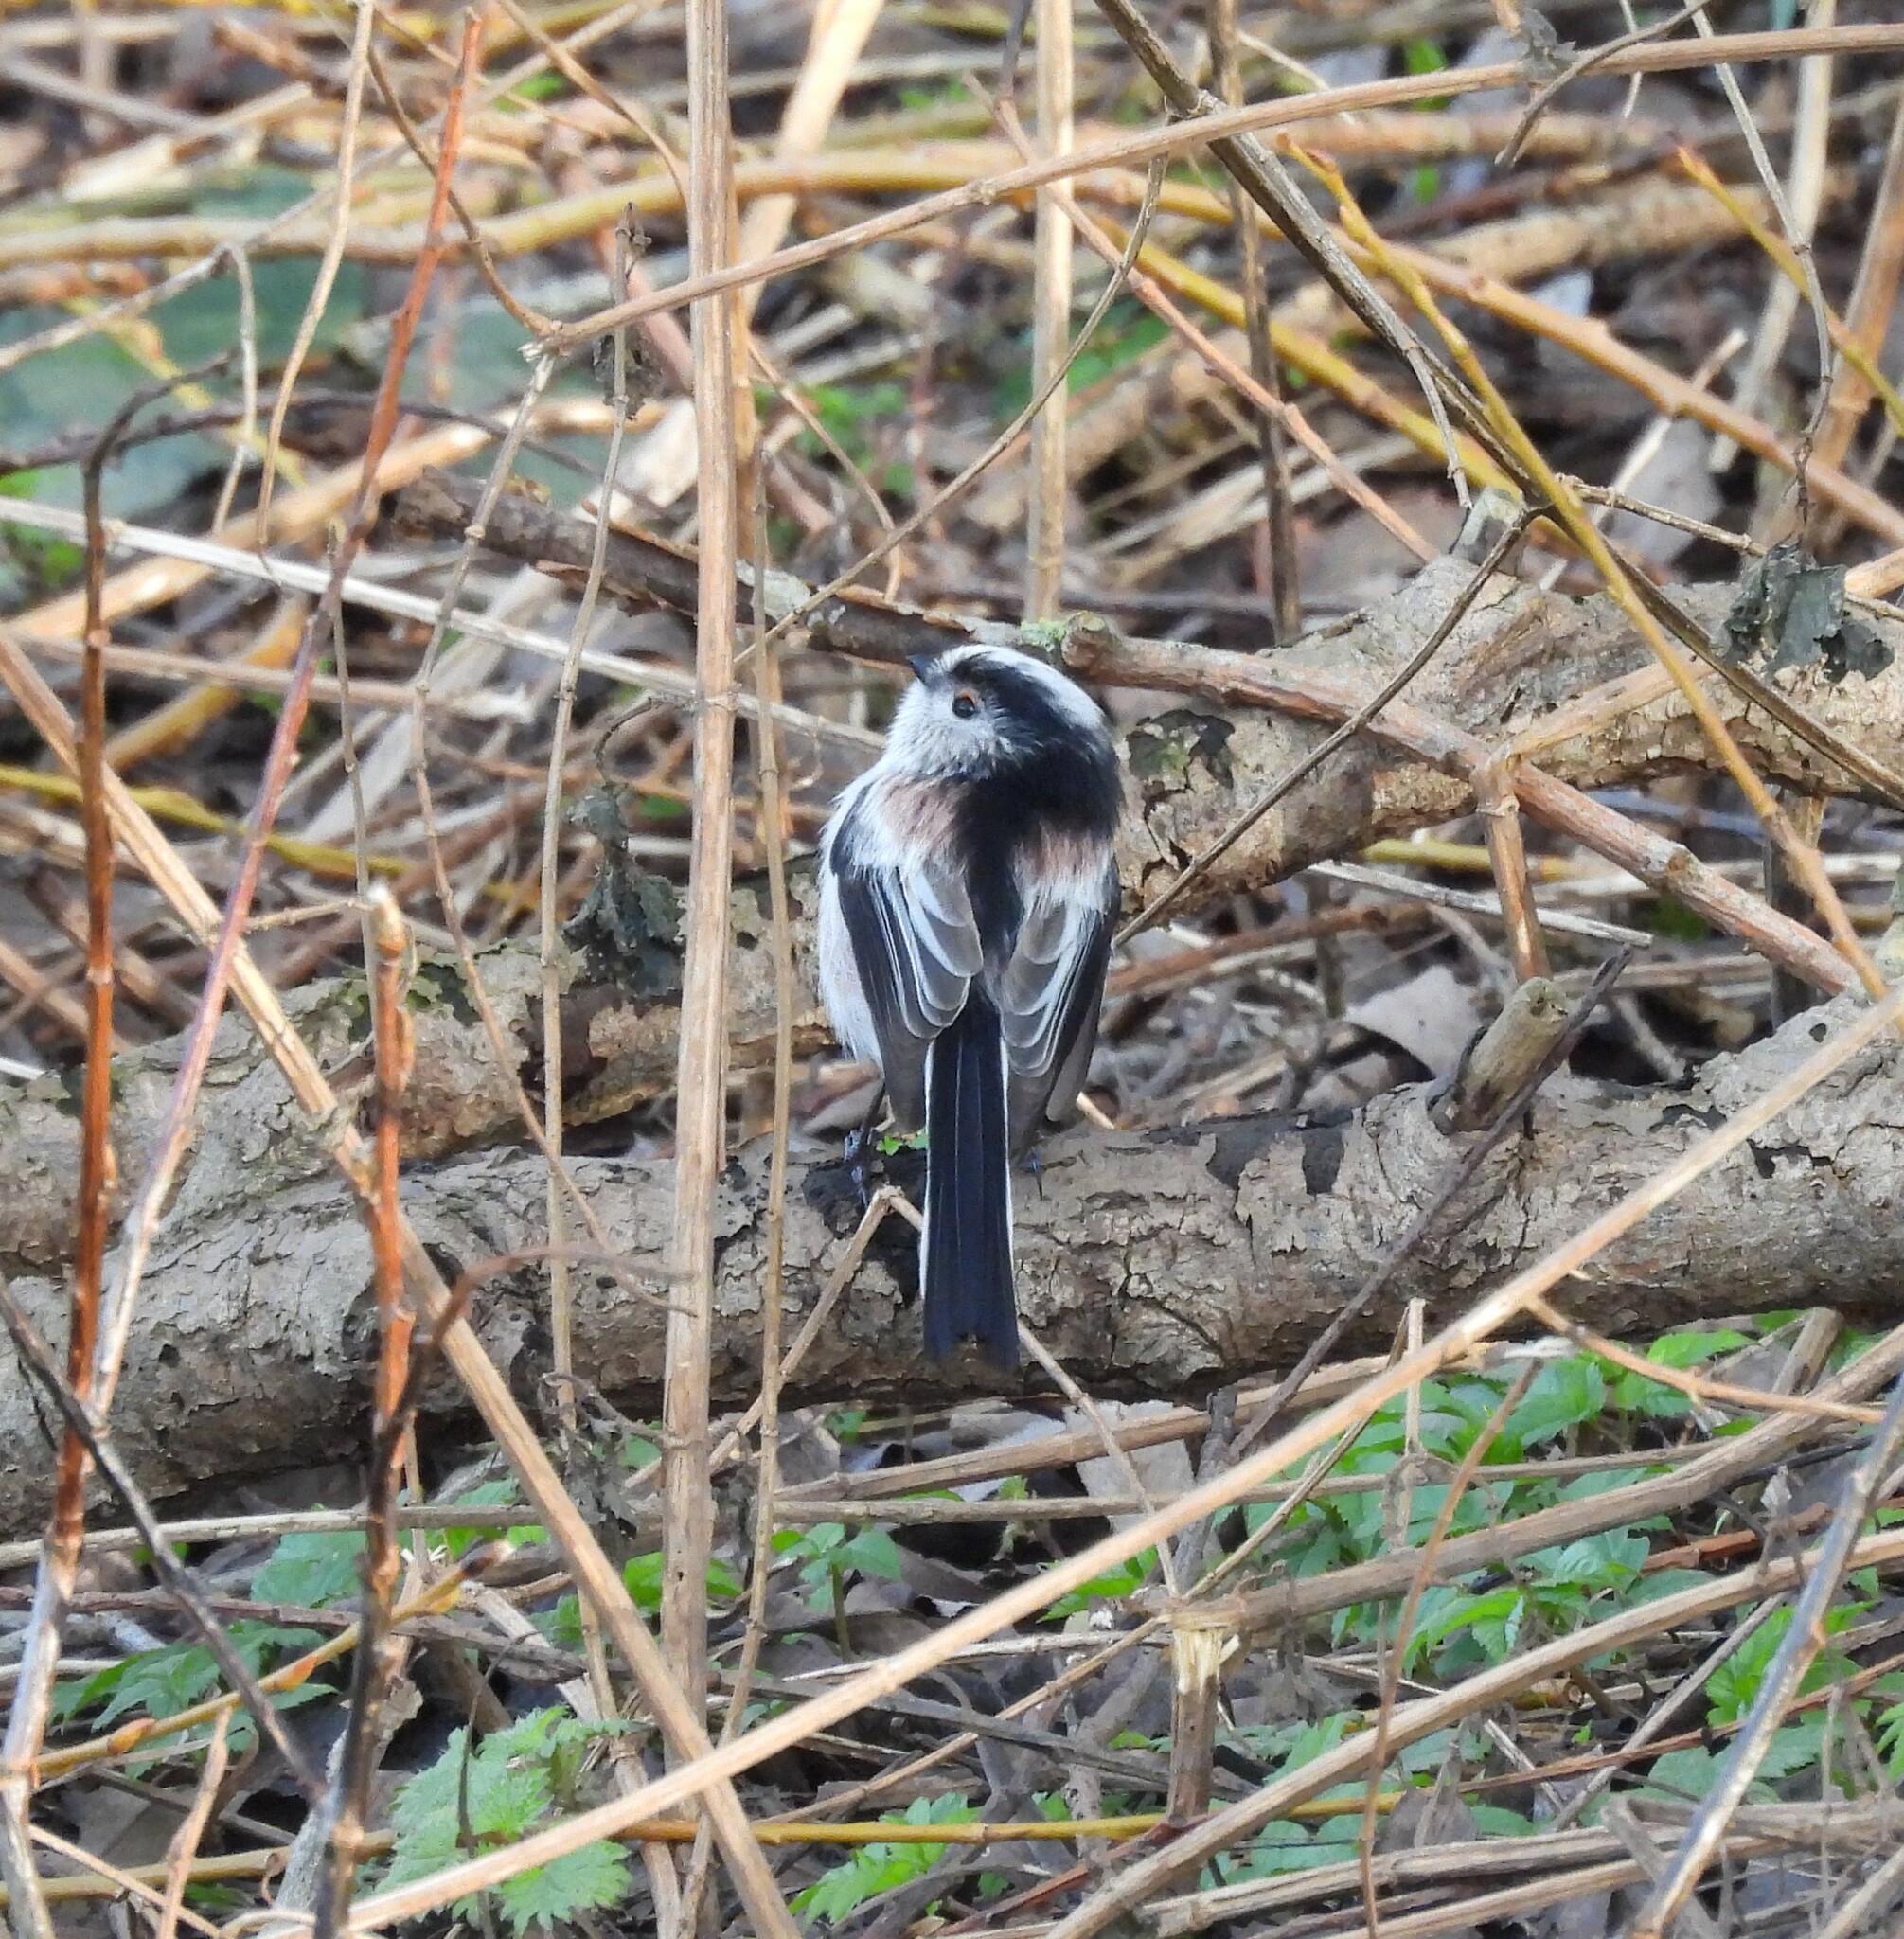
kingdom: Animalia
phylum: Chordata
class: Aves
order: Passeriformes
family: Aegithalidae
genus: Aegithalos
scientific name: Aegithalos caudatus
